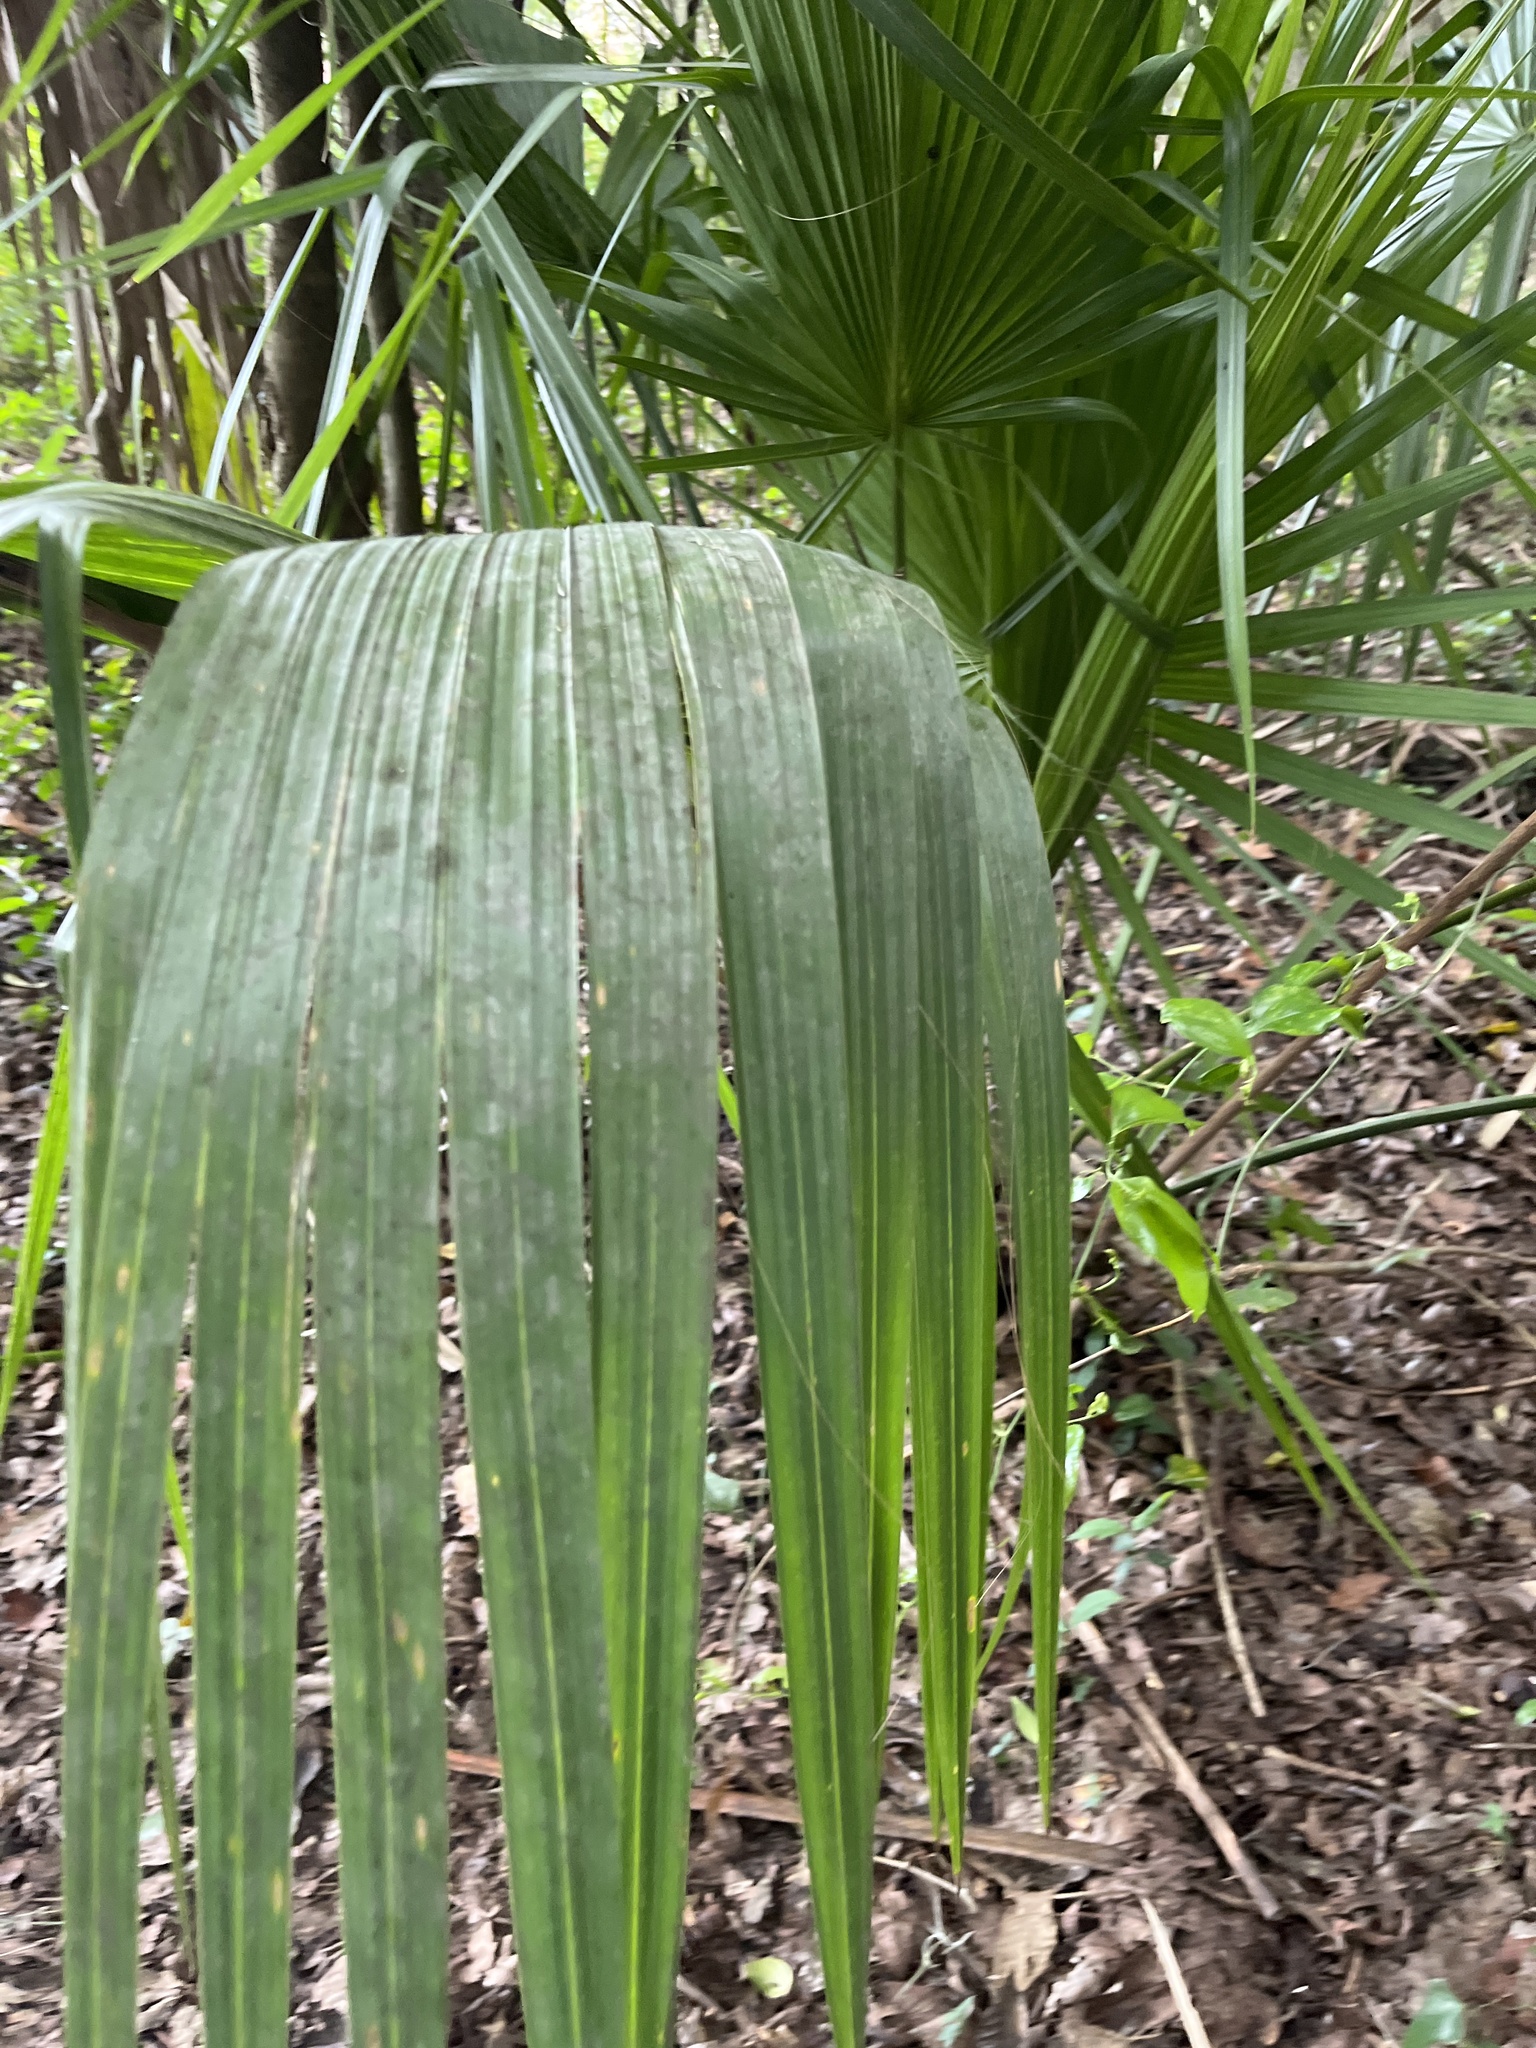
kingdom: Plantae
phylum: Tracheophyta
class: Liliopsida
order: Arecales
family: Arecaceae
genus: Sabal
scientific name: Sabal palmetto
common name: Blue palmetto
